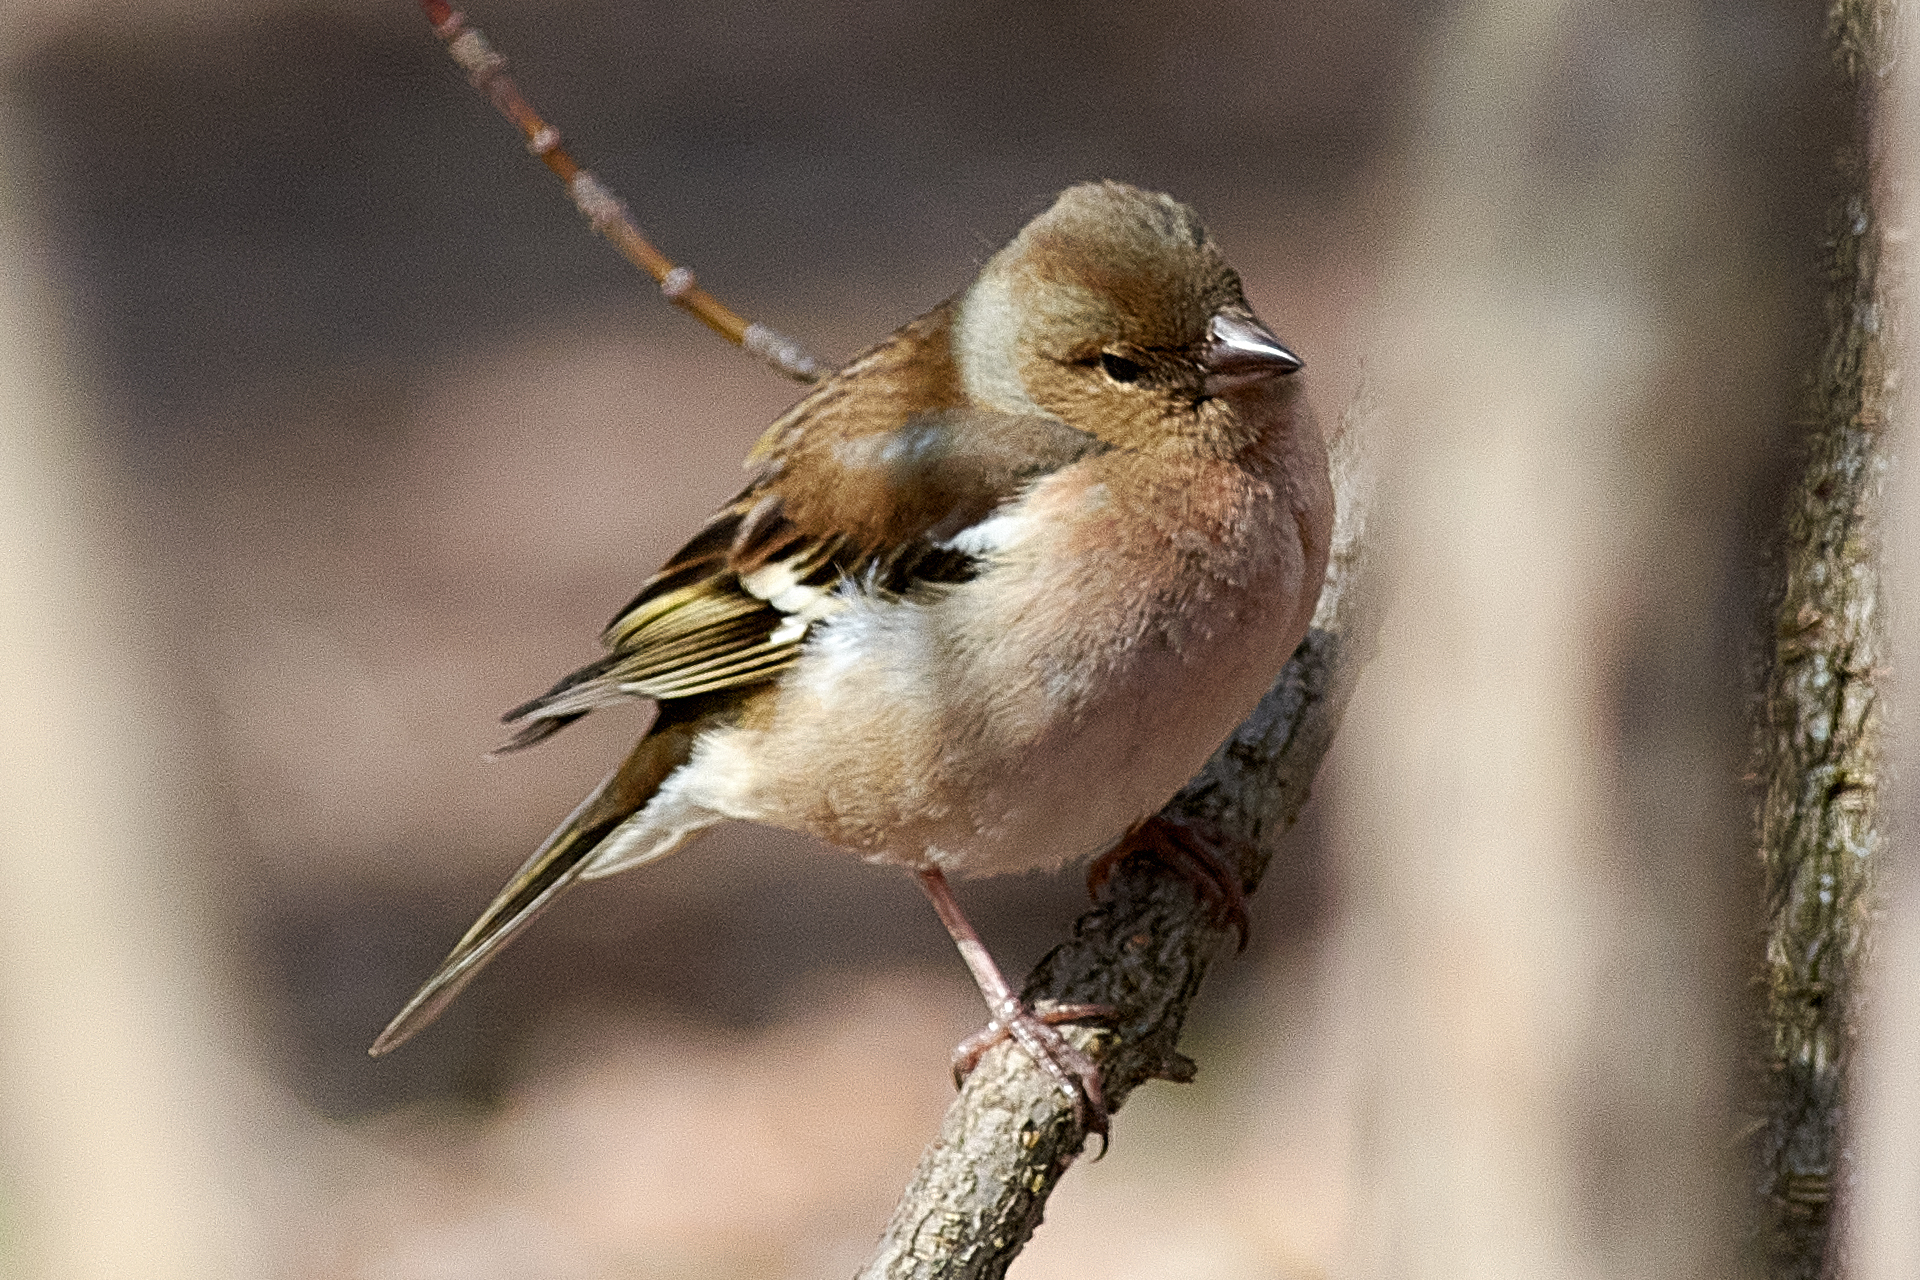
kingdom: Animalia
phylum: Chordata
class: Aves
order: Passeriformes
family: Fringillidae
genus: Fringilla
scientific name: Fringilla coelebs
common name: Common chaffinch
